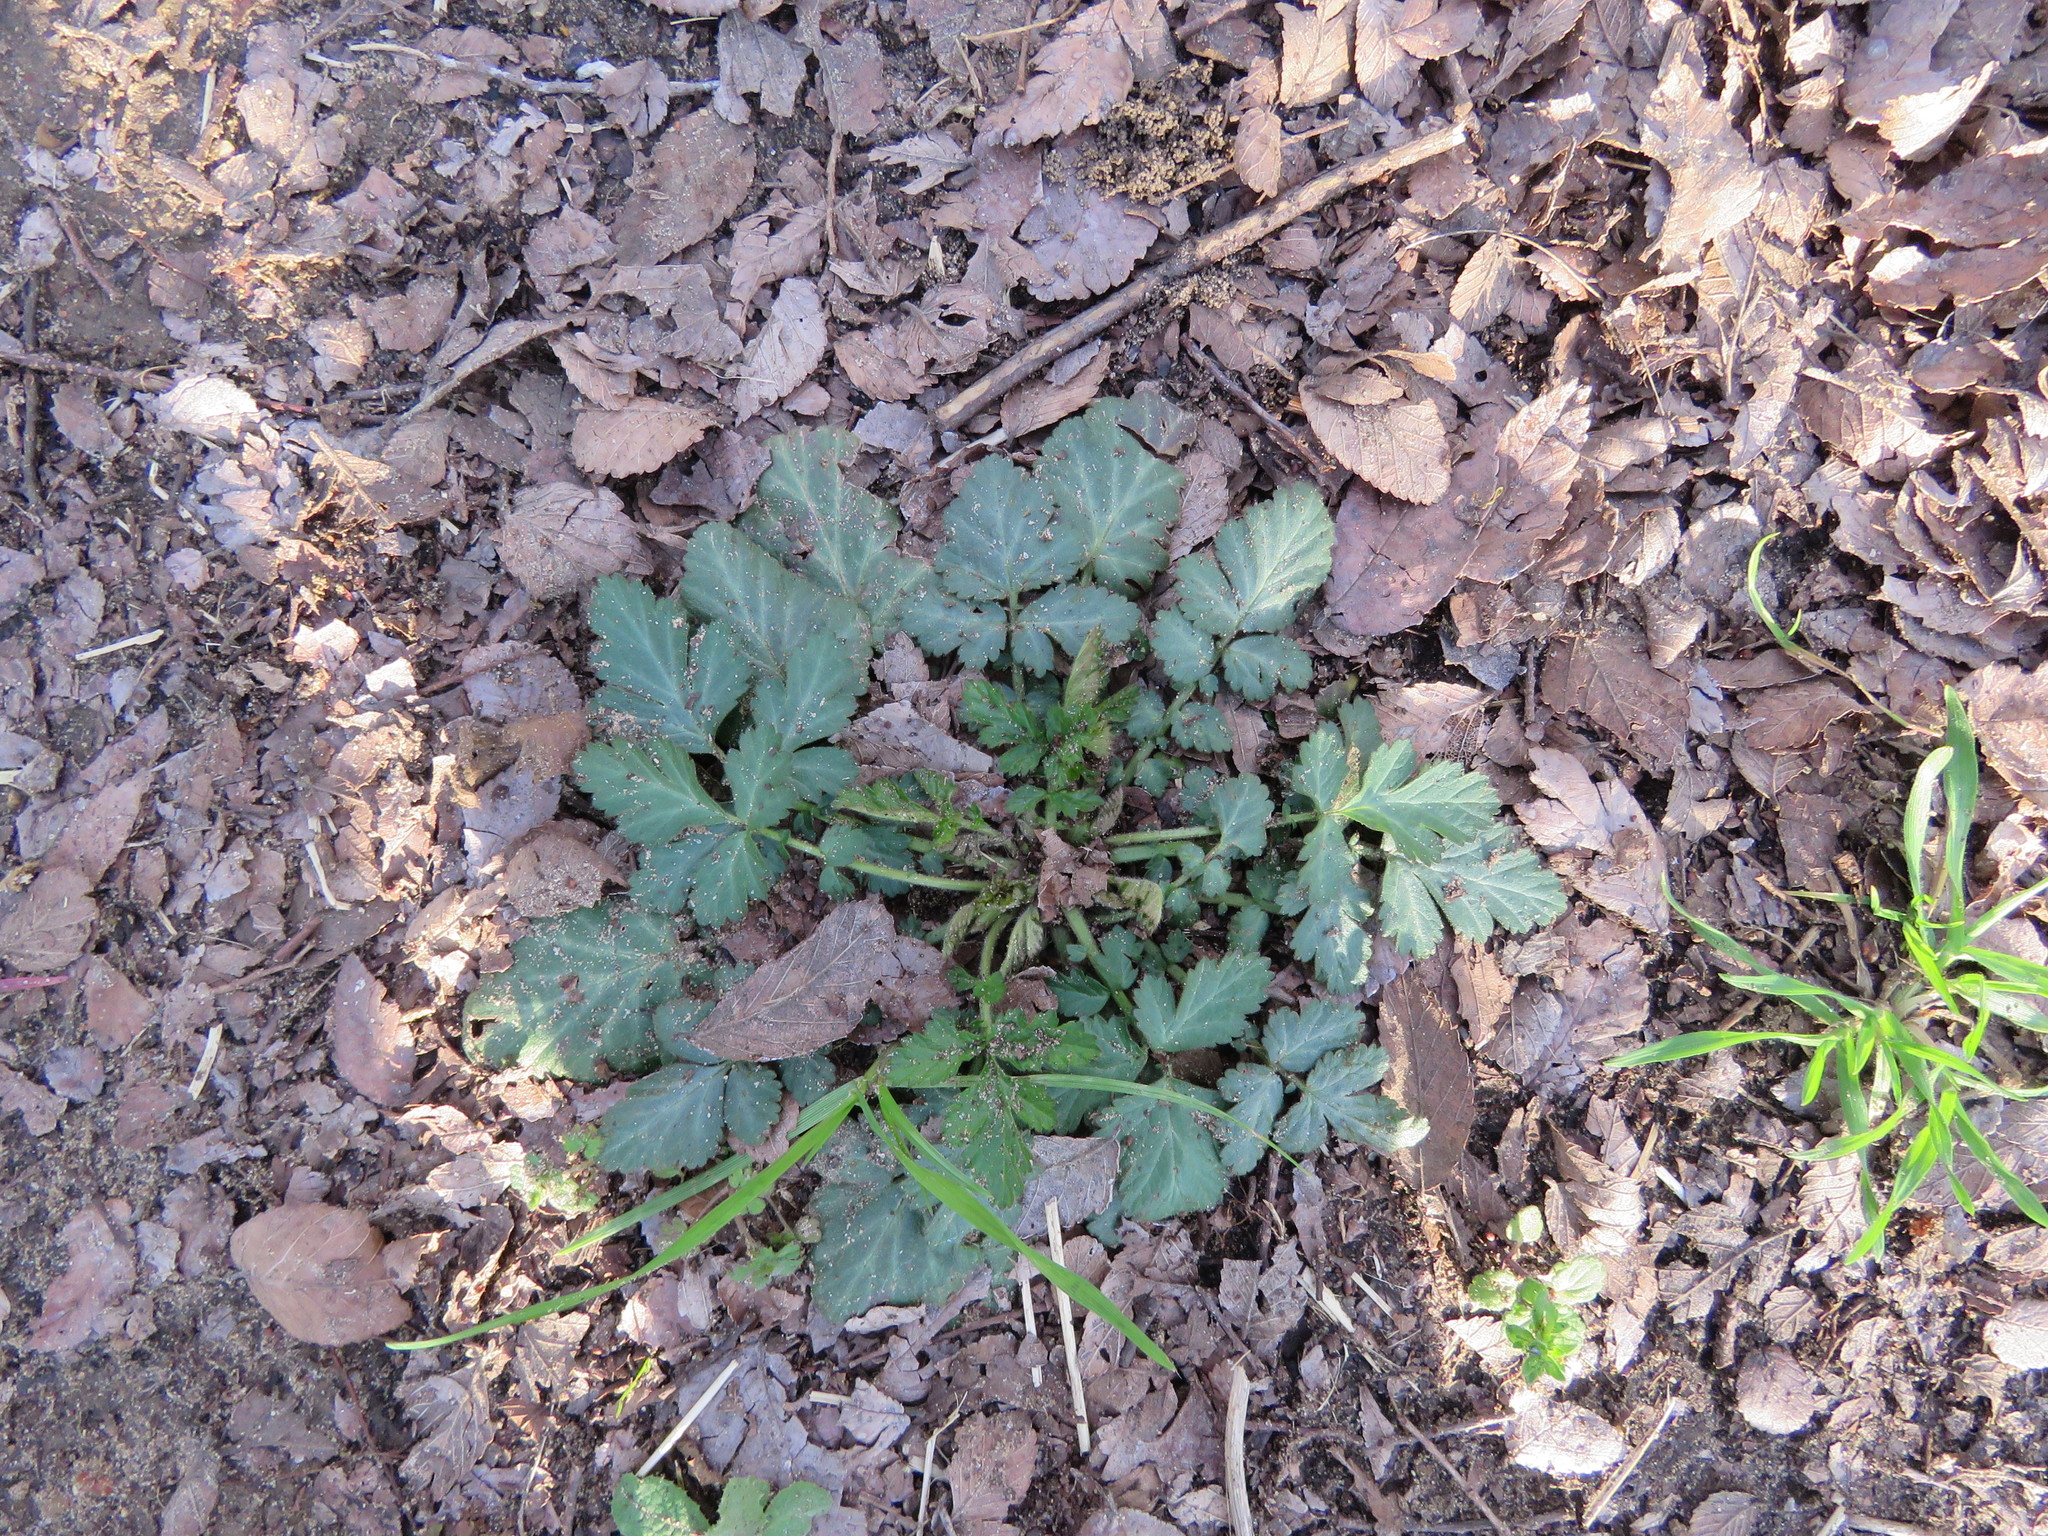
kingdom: Plantae
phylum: Tracheophyta
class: Magnoliopsida
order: Rosales
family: Rosaceae
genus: Geum
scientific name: Geum canadense
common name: White avens
